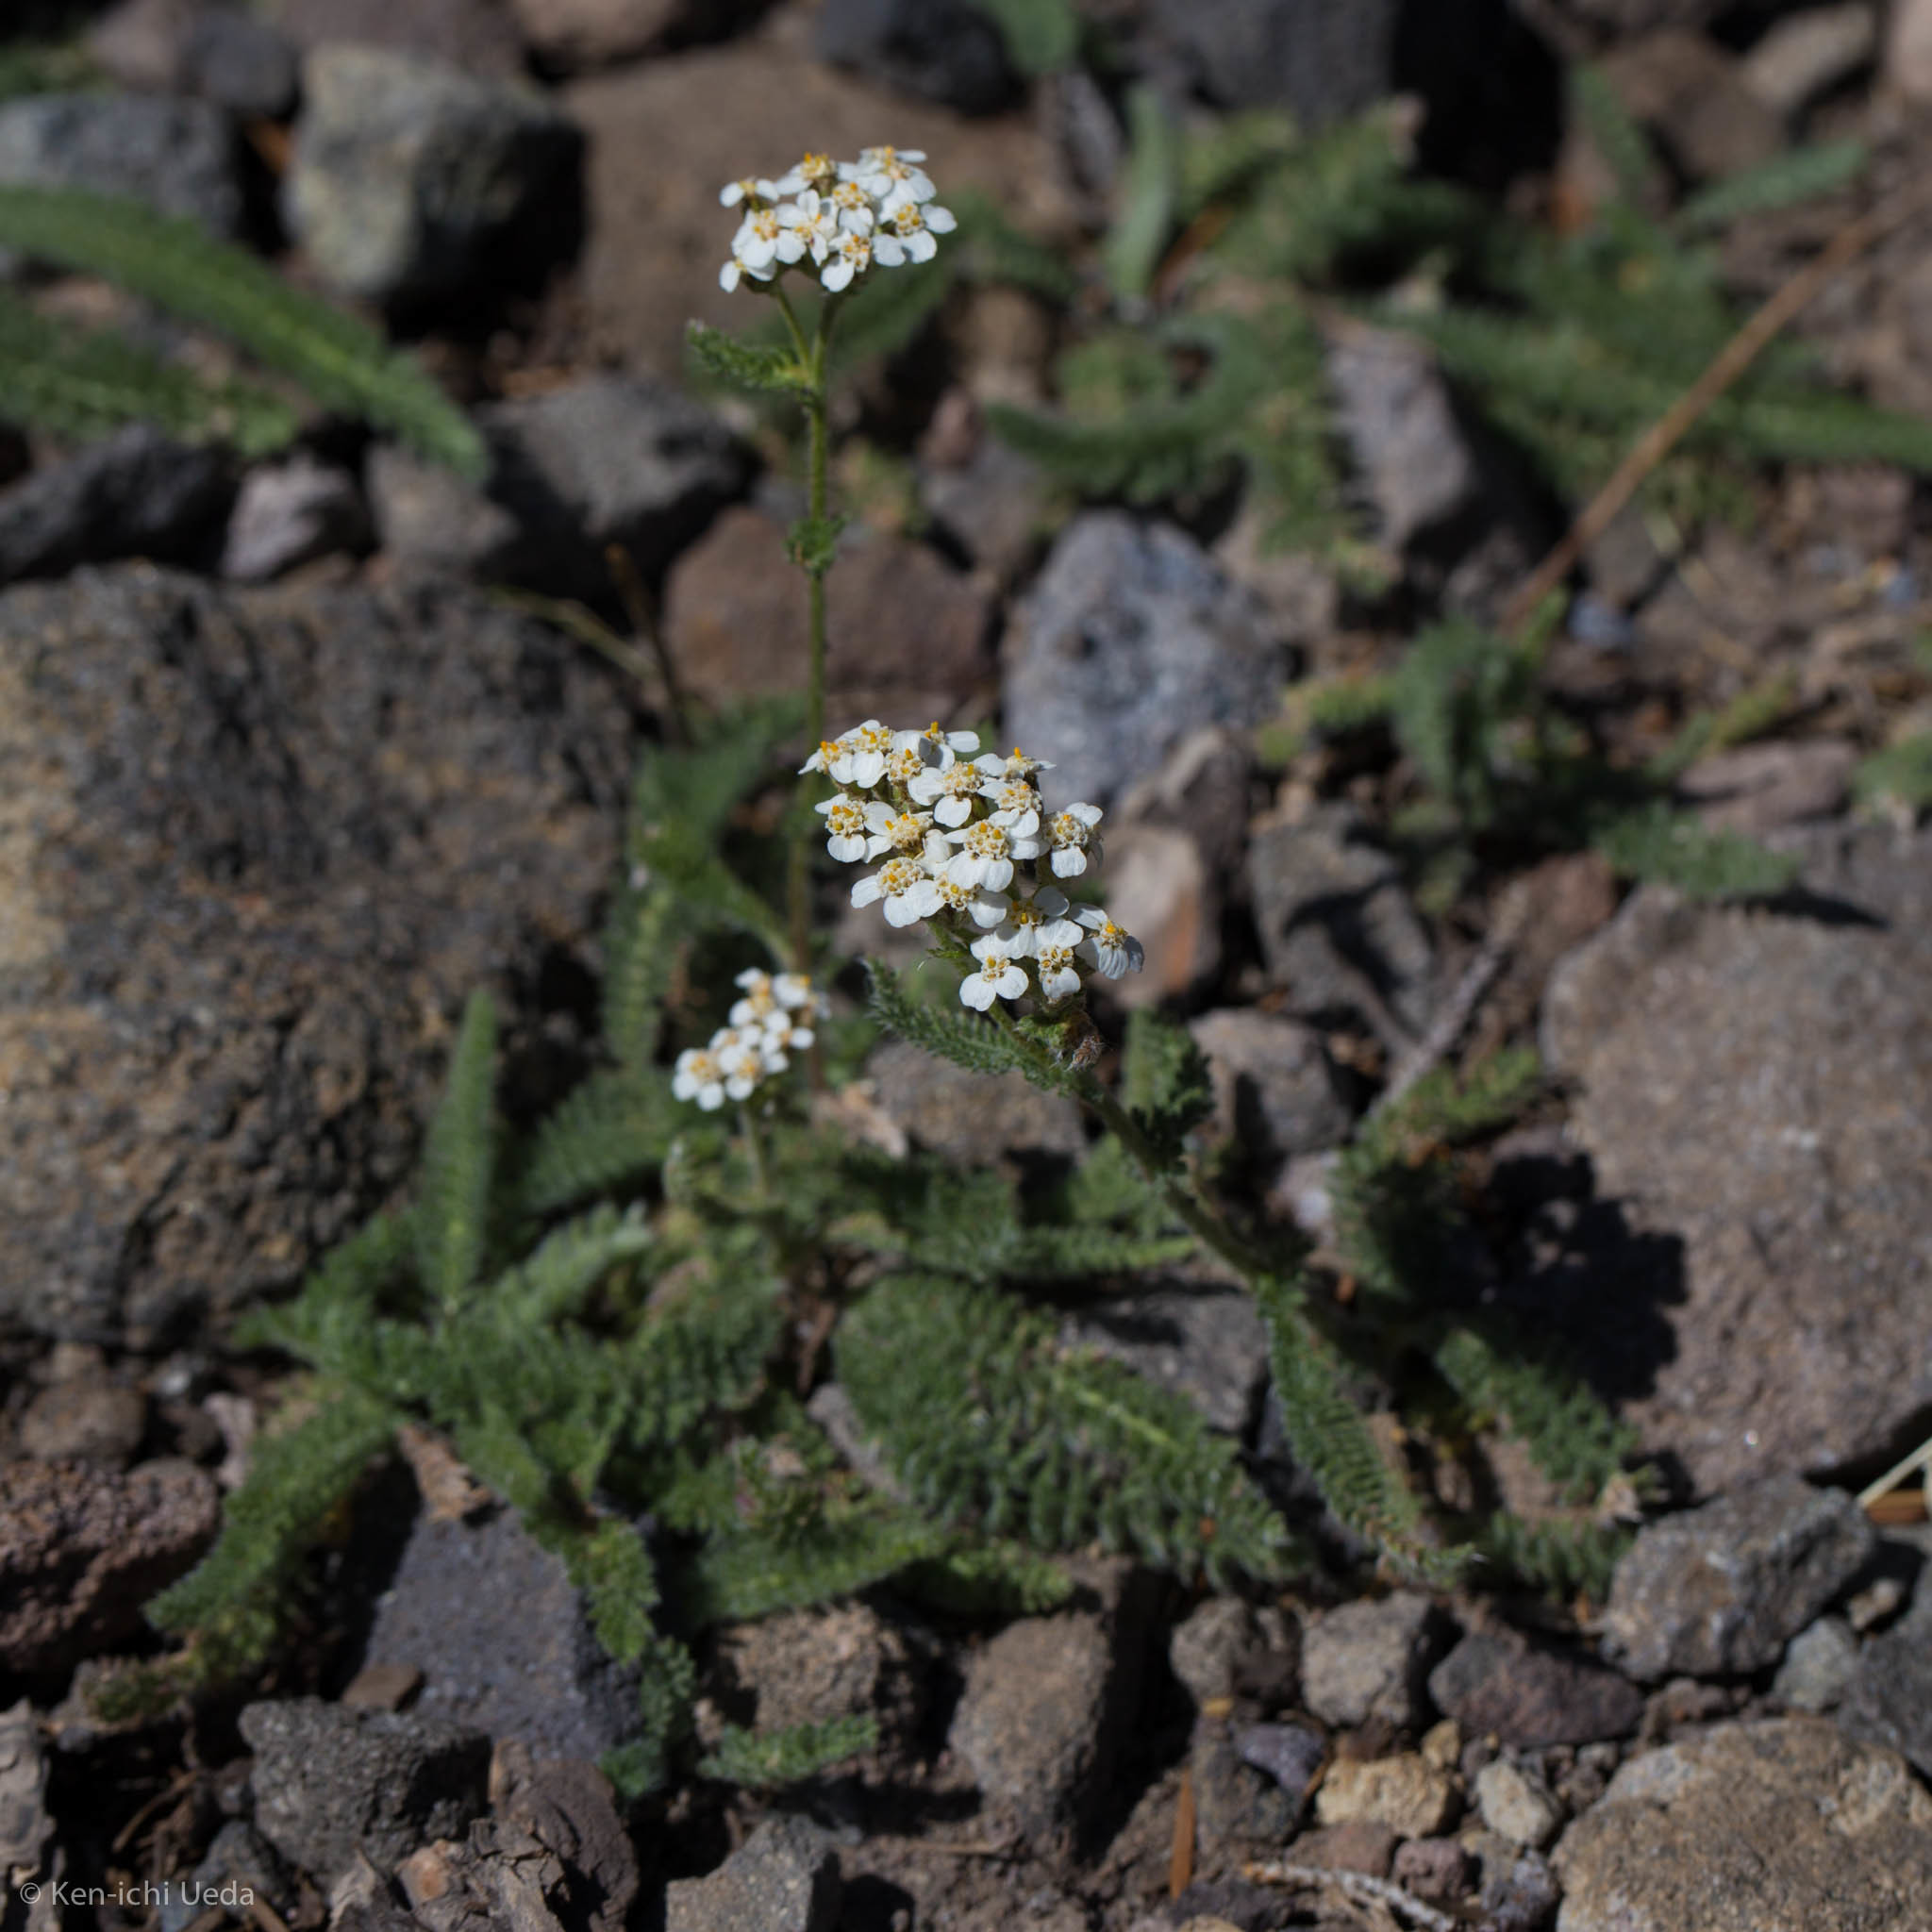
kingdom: Plantae
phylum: Tracheophyta
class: Magnoliopsida
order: Asterales
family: Asteraceae
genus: Achillea
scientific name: Achillea millefolium
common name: Yarrow
